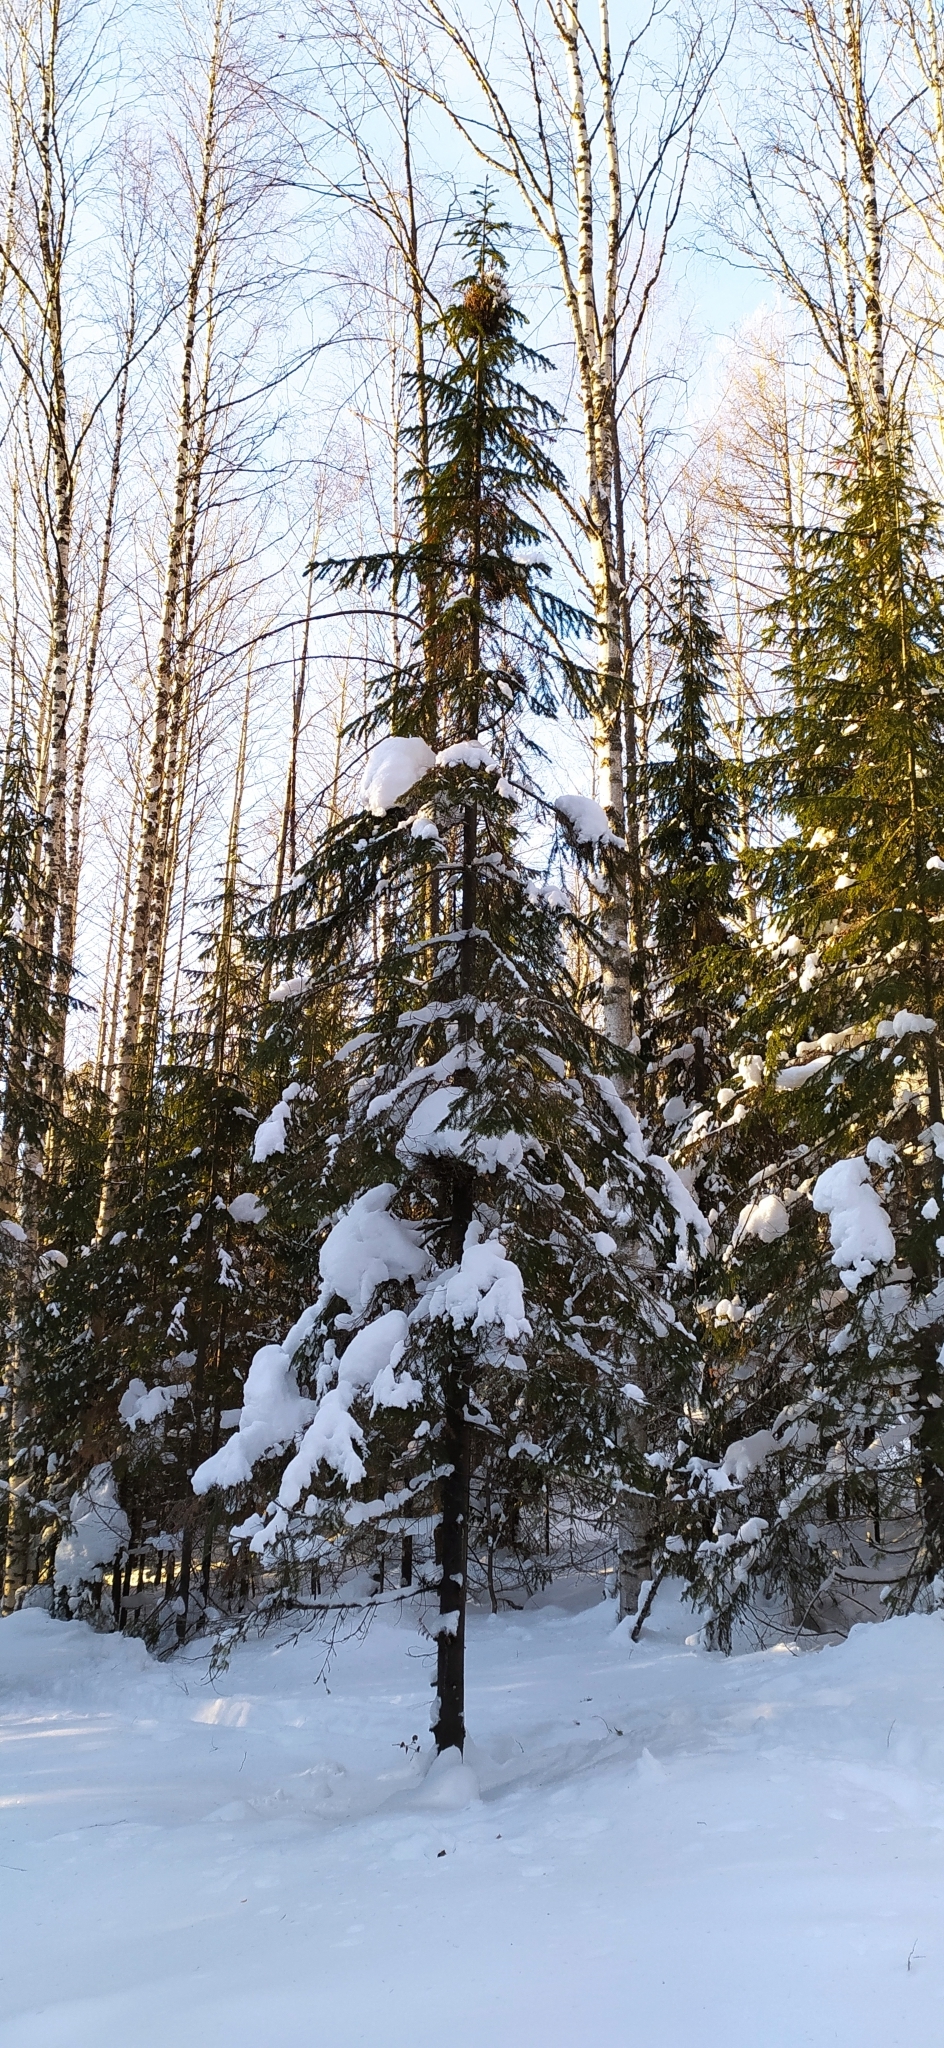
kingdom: Plantae
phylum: Tracheophyta
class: Pinopsida
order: Pinales
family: Pinaceae
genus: Abies
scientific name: Abies sibirica
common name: Siberian fir
